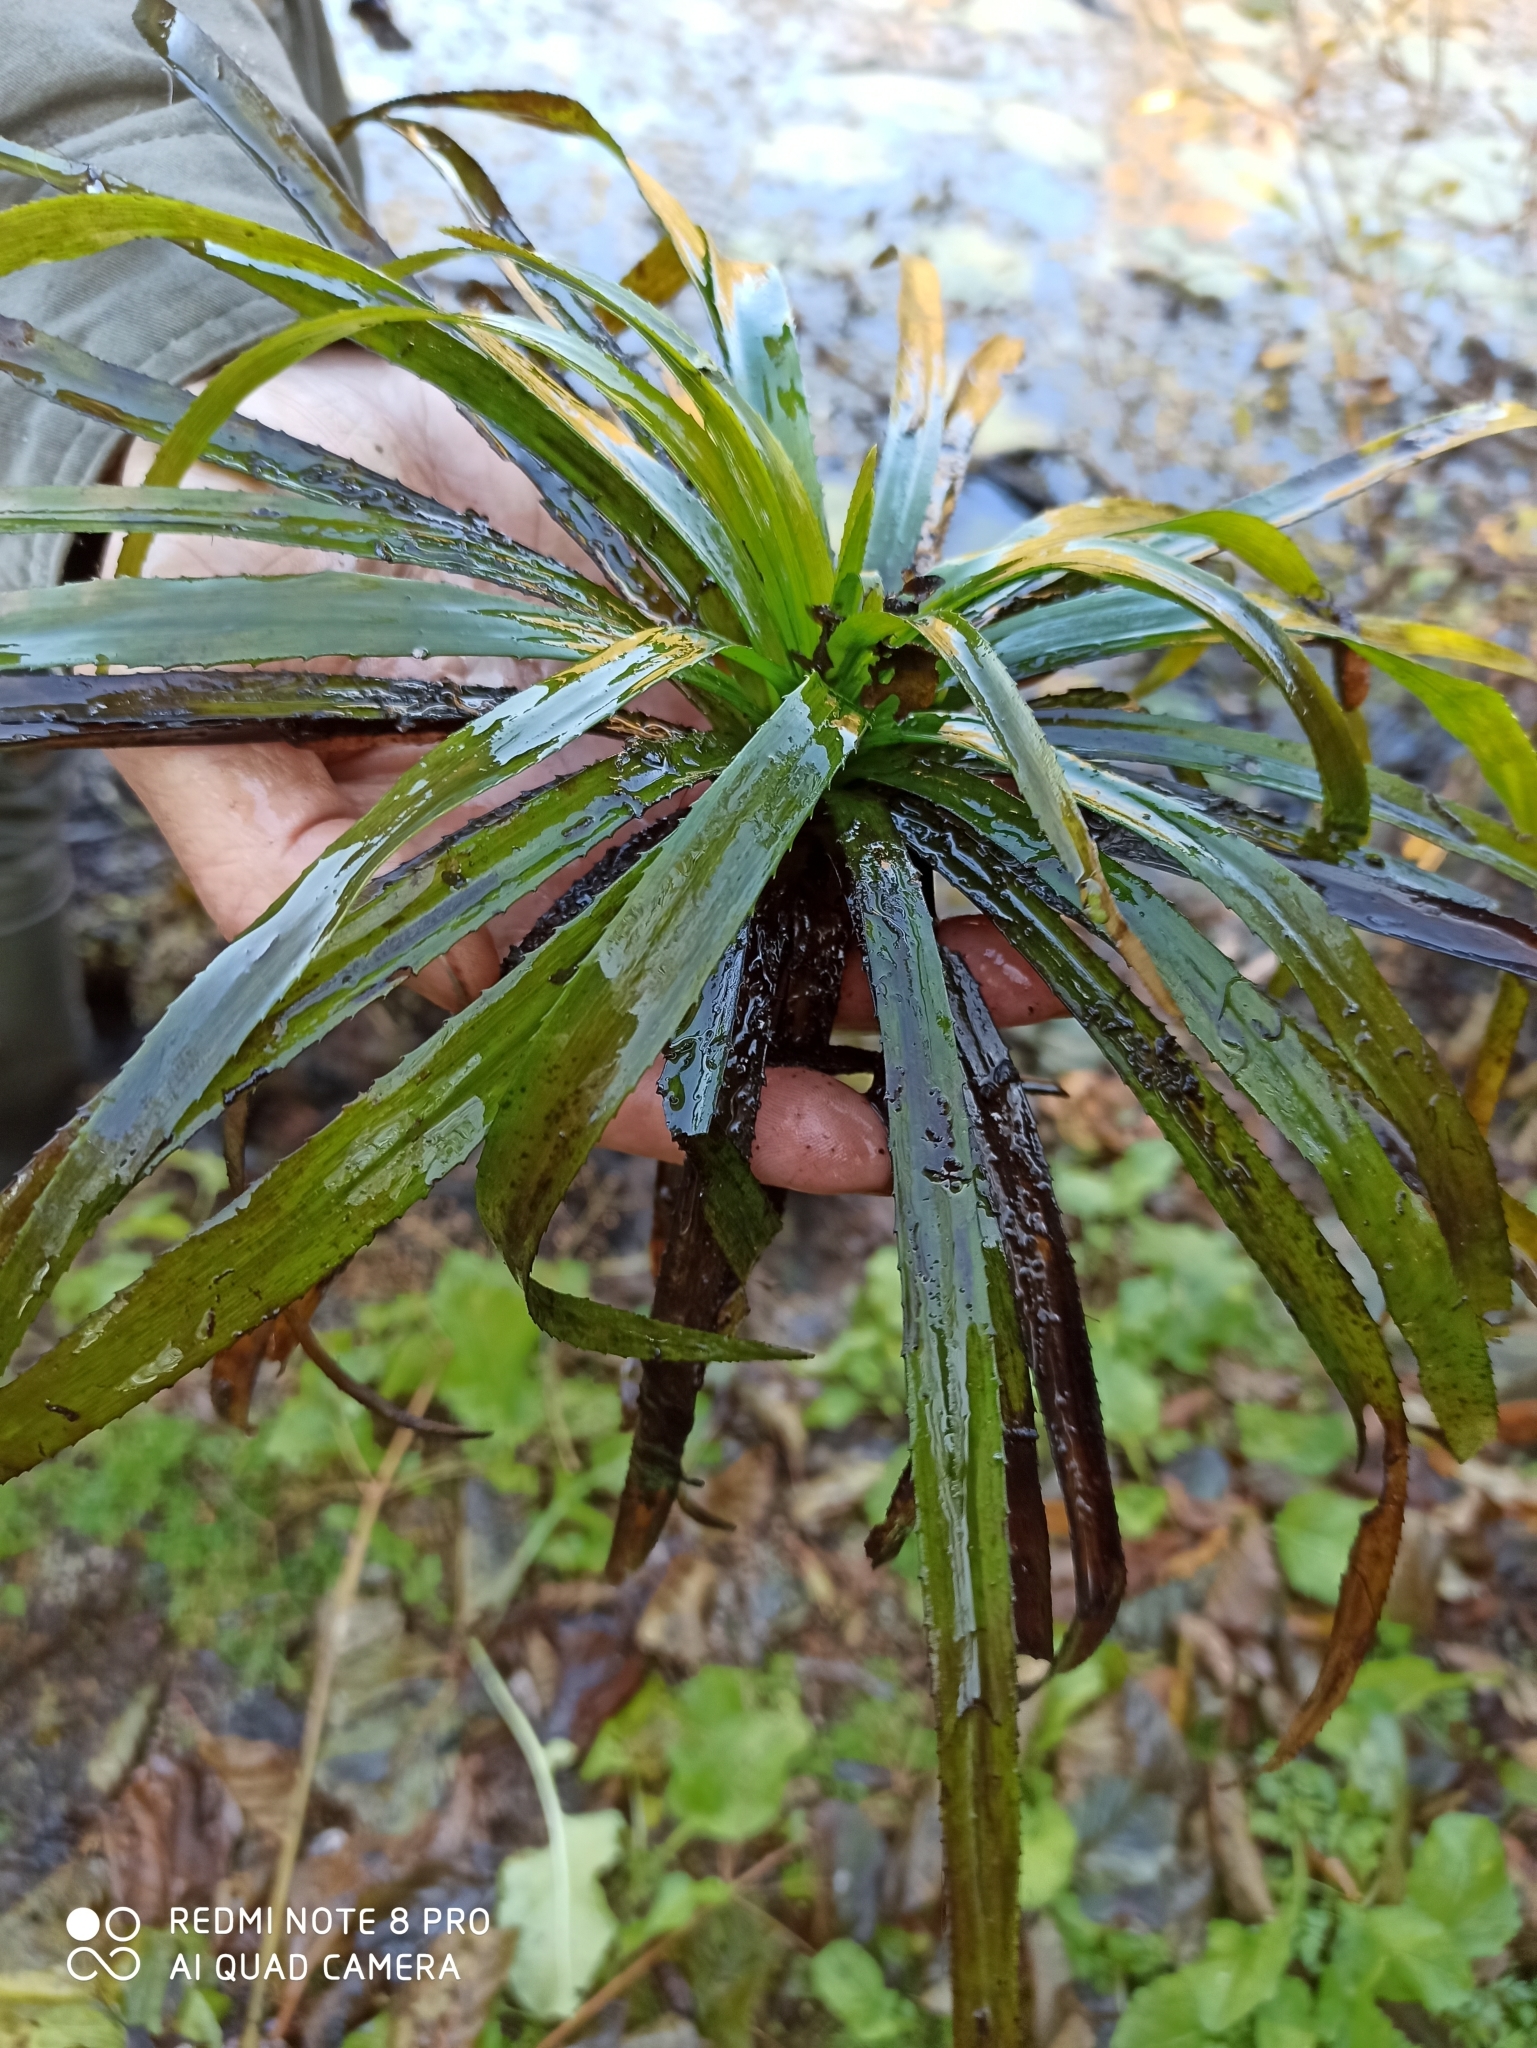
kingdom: Plantae
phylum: Tracheophyta
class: Liliopsida
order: Alismatales
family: Hydrocharitaceae
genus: Stratiotes
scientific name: Stratiotes aloides
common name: Water-soldier
